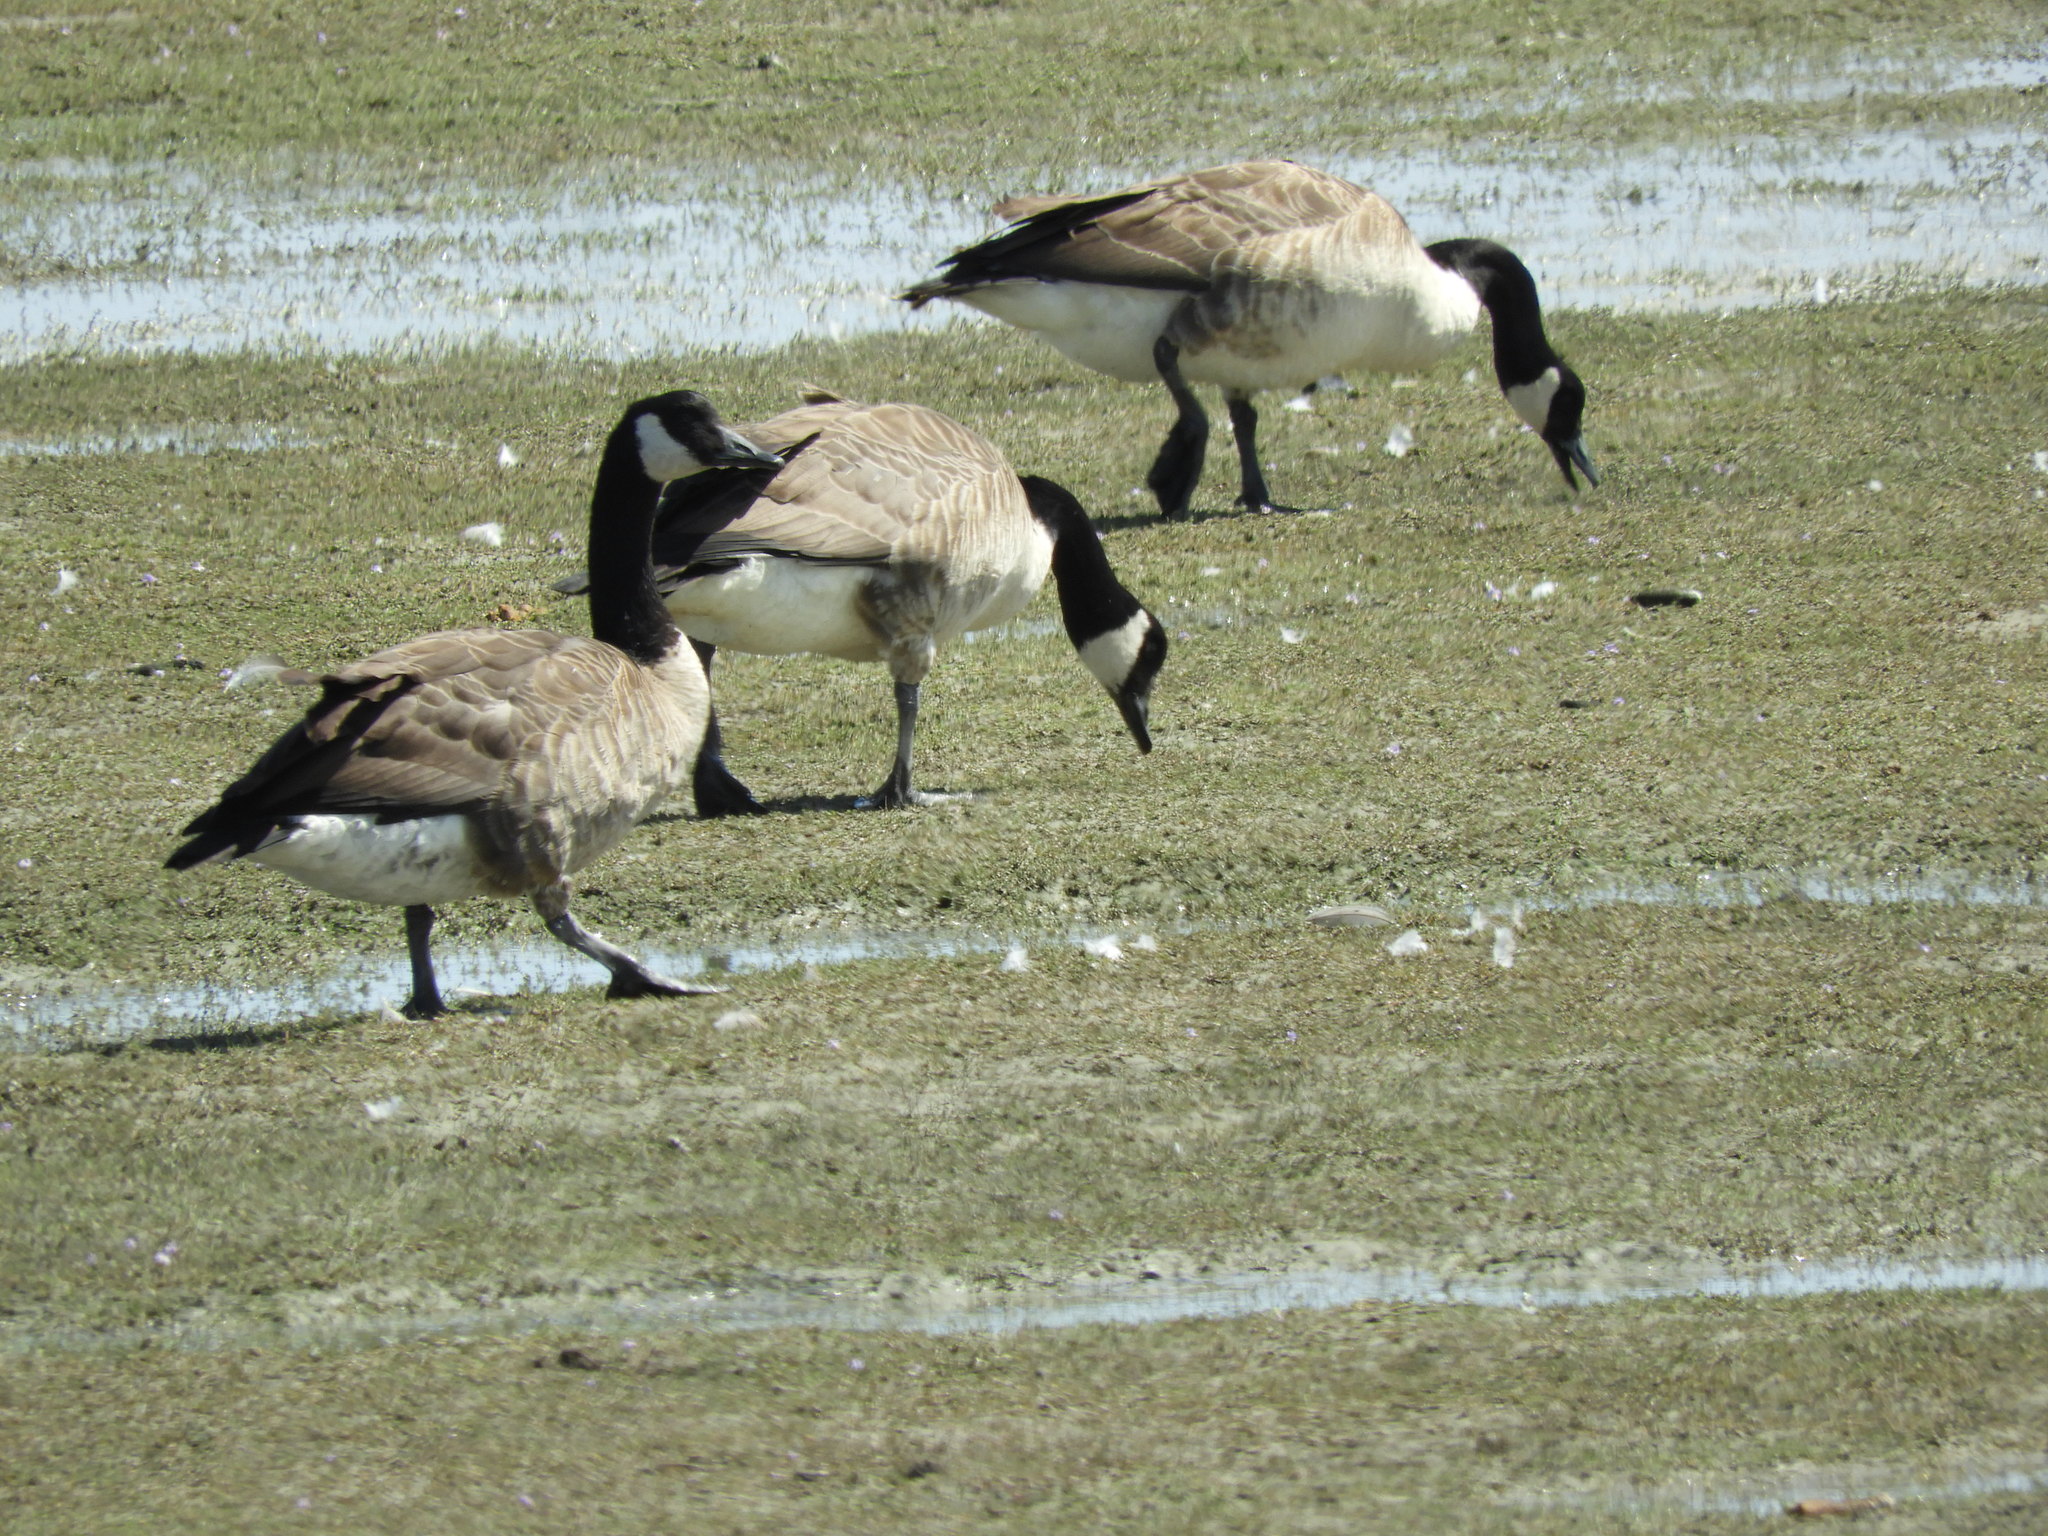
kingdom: Animalia
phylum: Chordata
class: Aves
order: Anseriformes
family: Anatidae
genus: Branta
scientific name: Branta canadensis
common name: Canada goose
